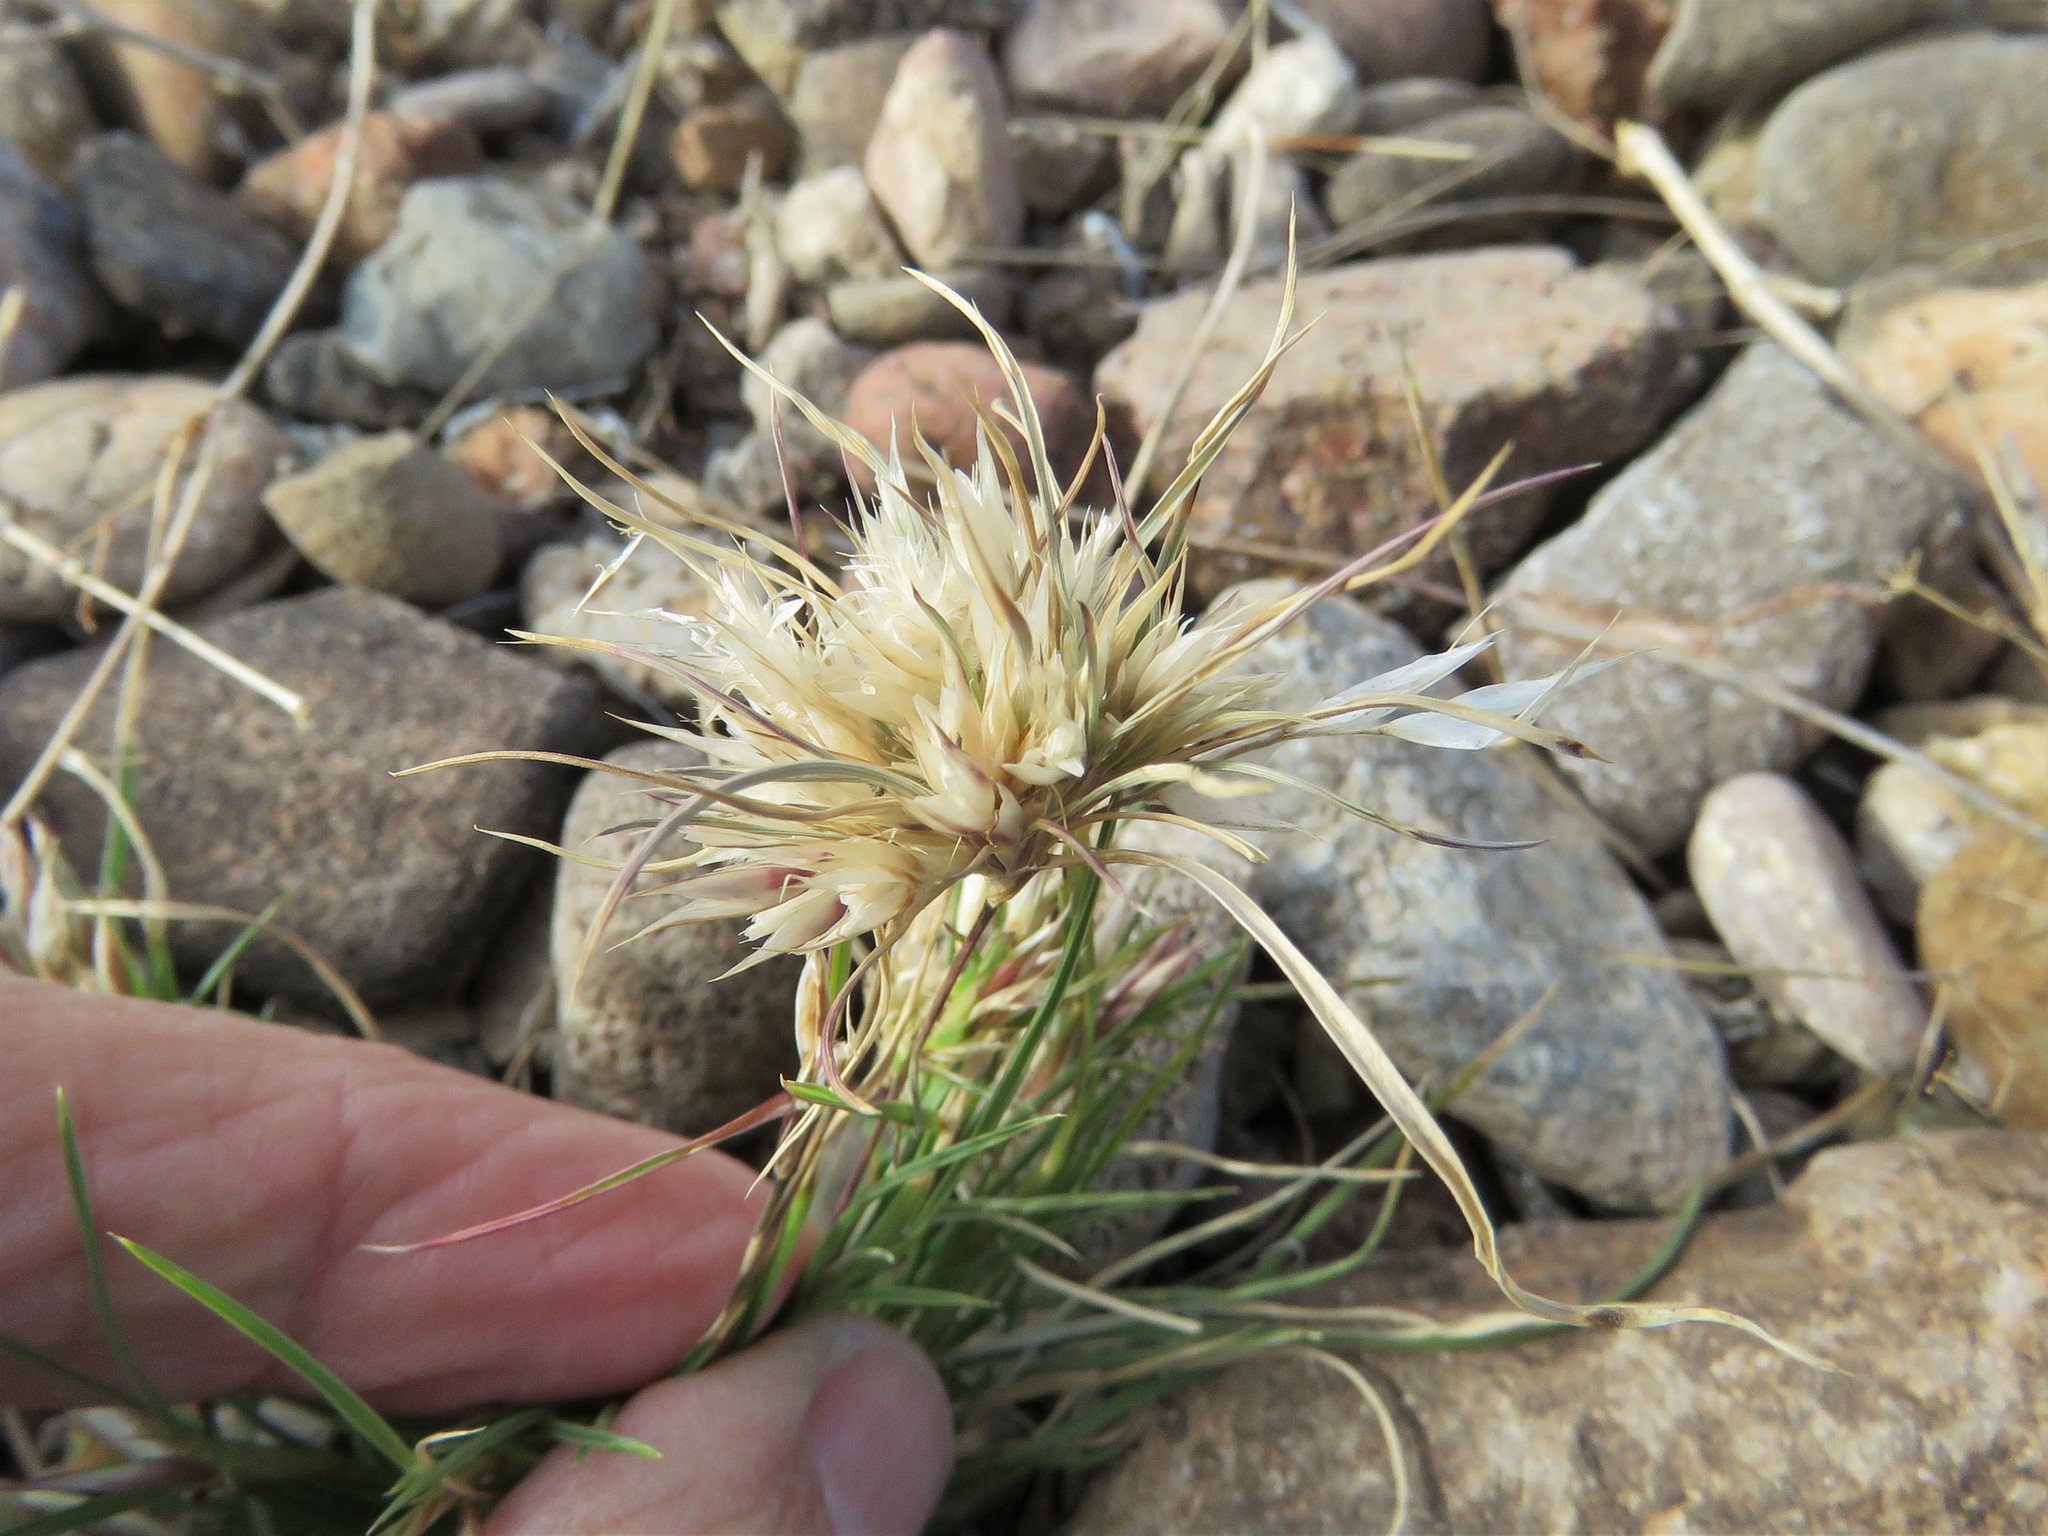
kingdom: Plantae
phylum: Tracheophyta
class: Liliopsida
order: Poales
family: Poaceae
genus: Dasyochloa
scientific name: Dasyochloa pulchella
